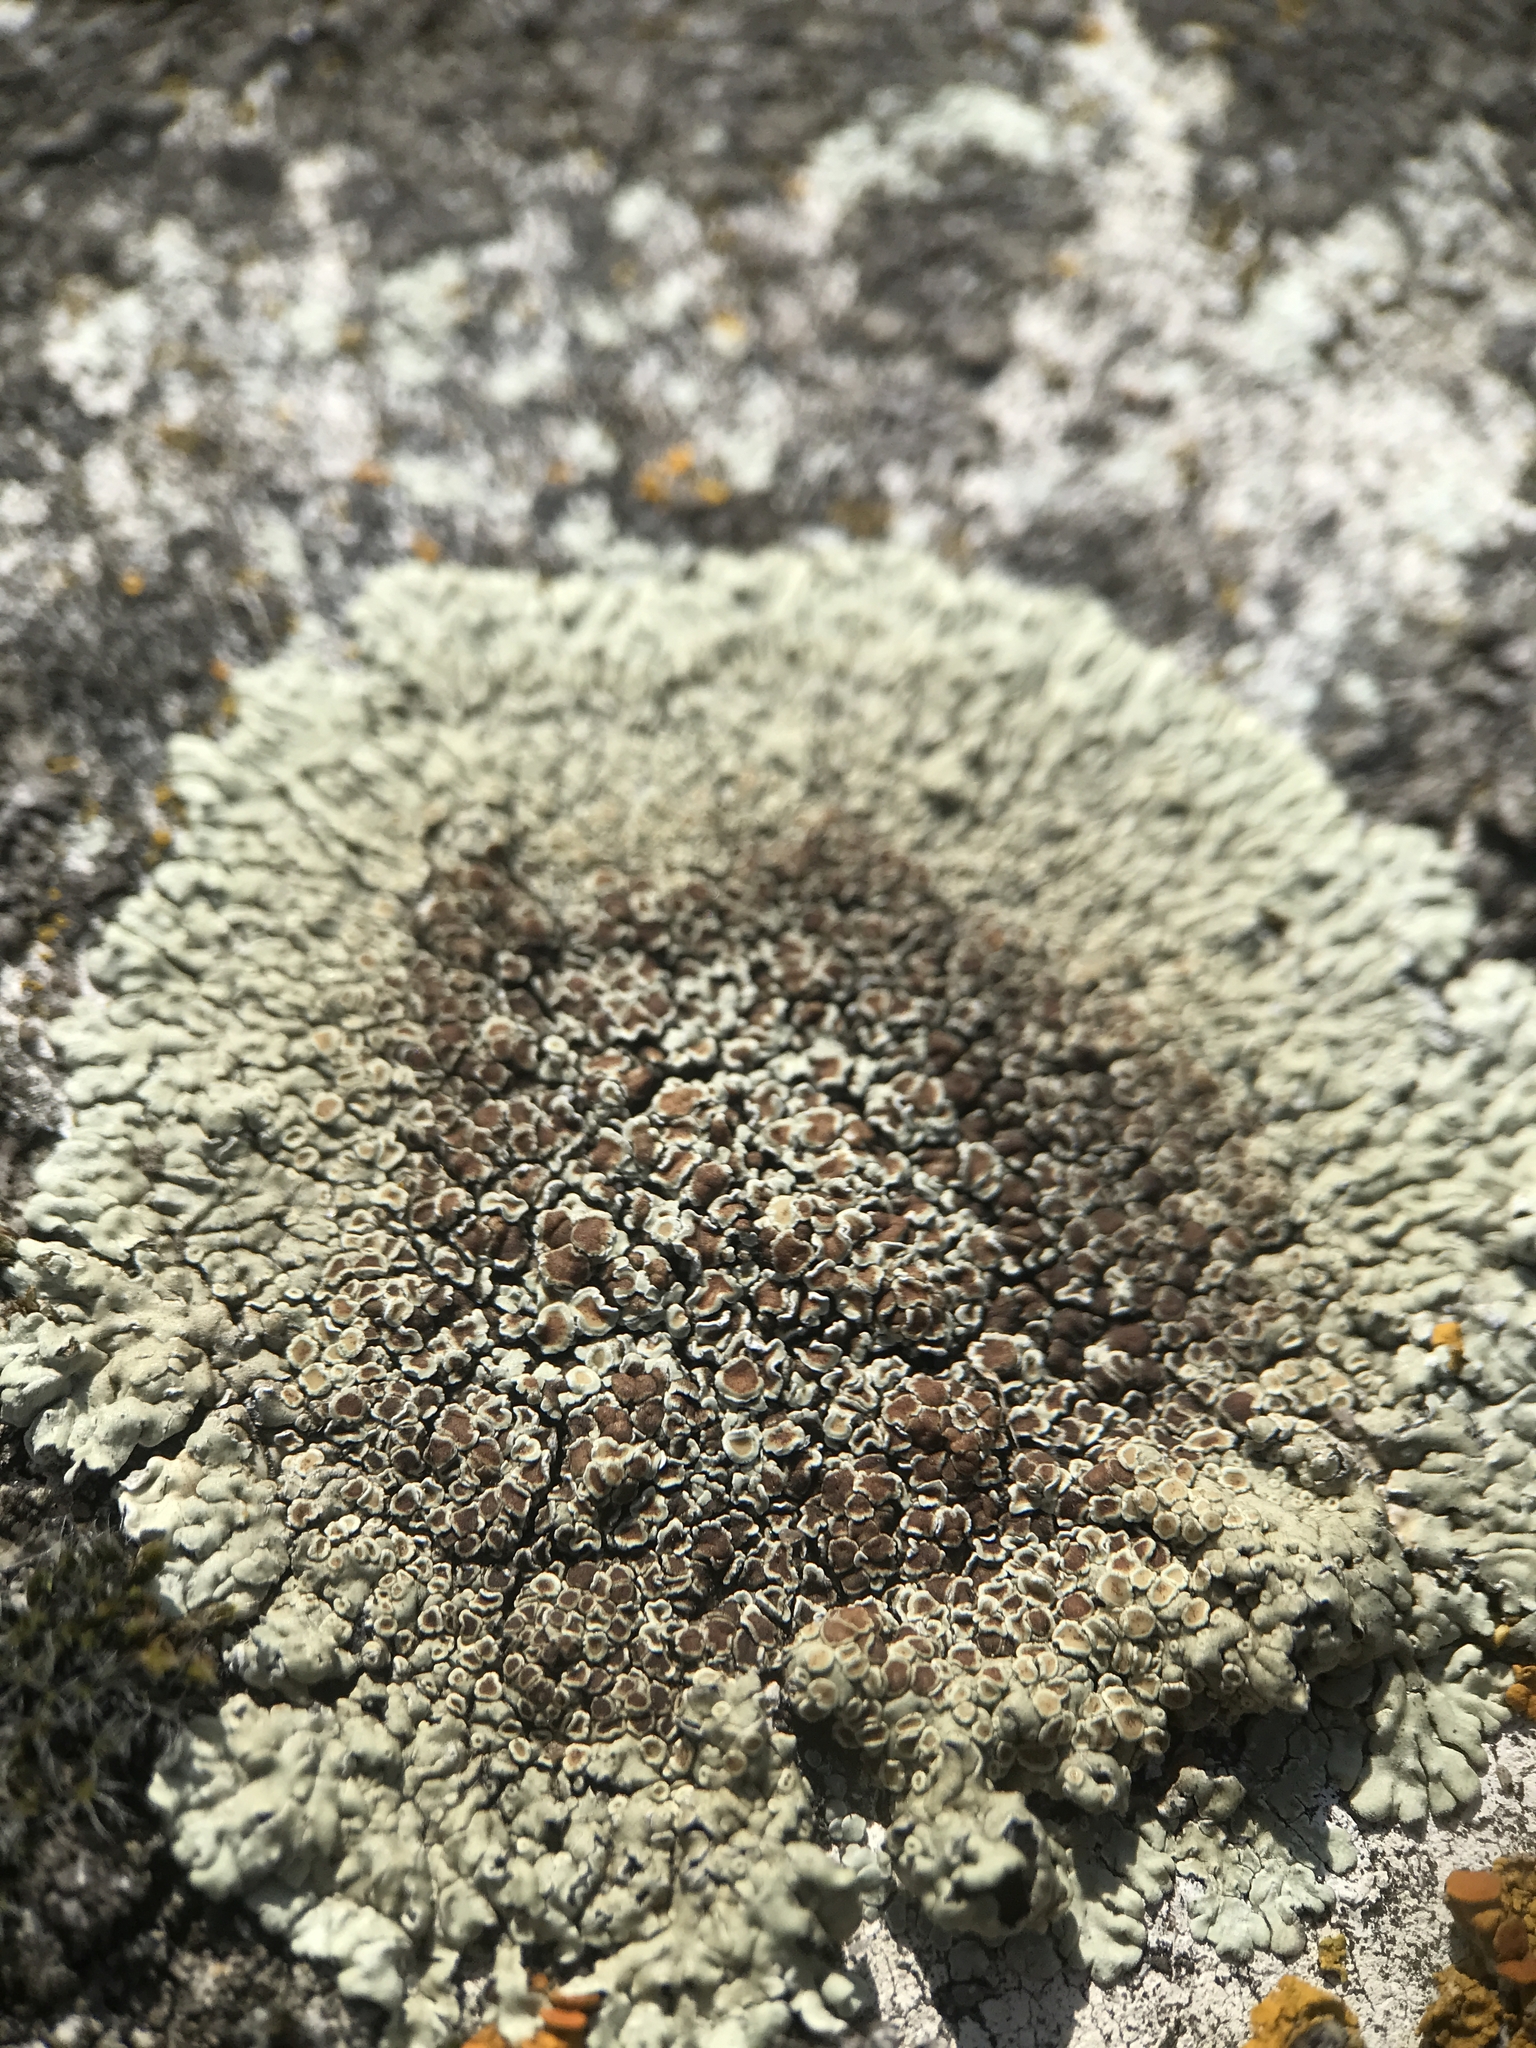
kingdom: Fungi
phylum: Ascomycota
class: Lecanoromycetes
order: Lecanorales
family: Lecanoraceae
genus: Protoparmeliopsis
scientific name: Protoparmeliopsis muralis
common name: Stonewall rim lichen
